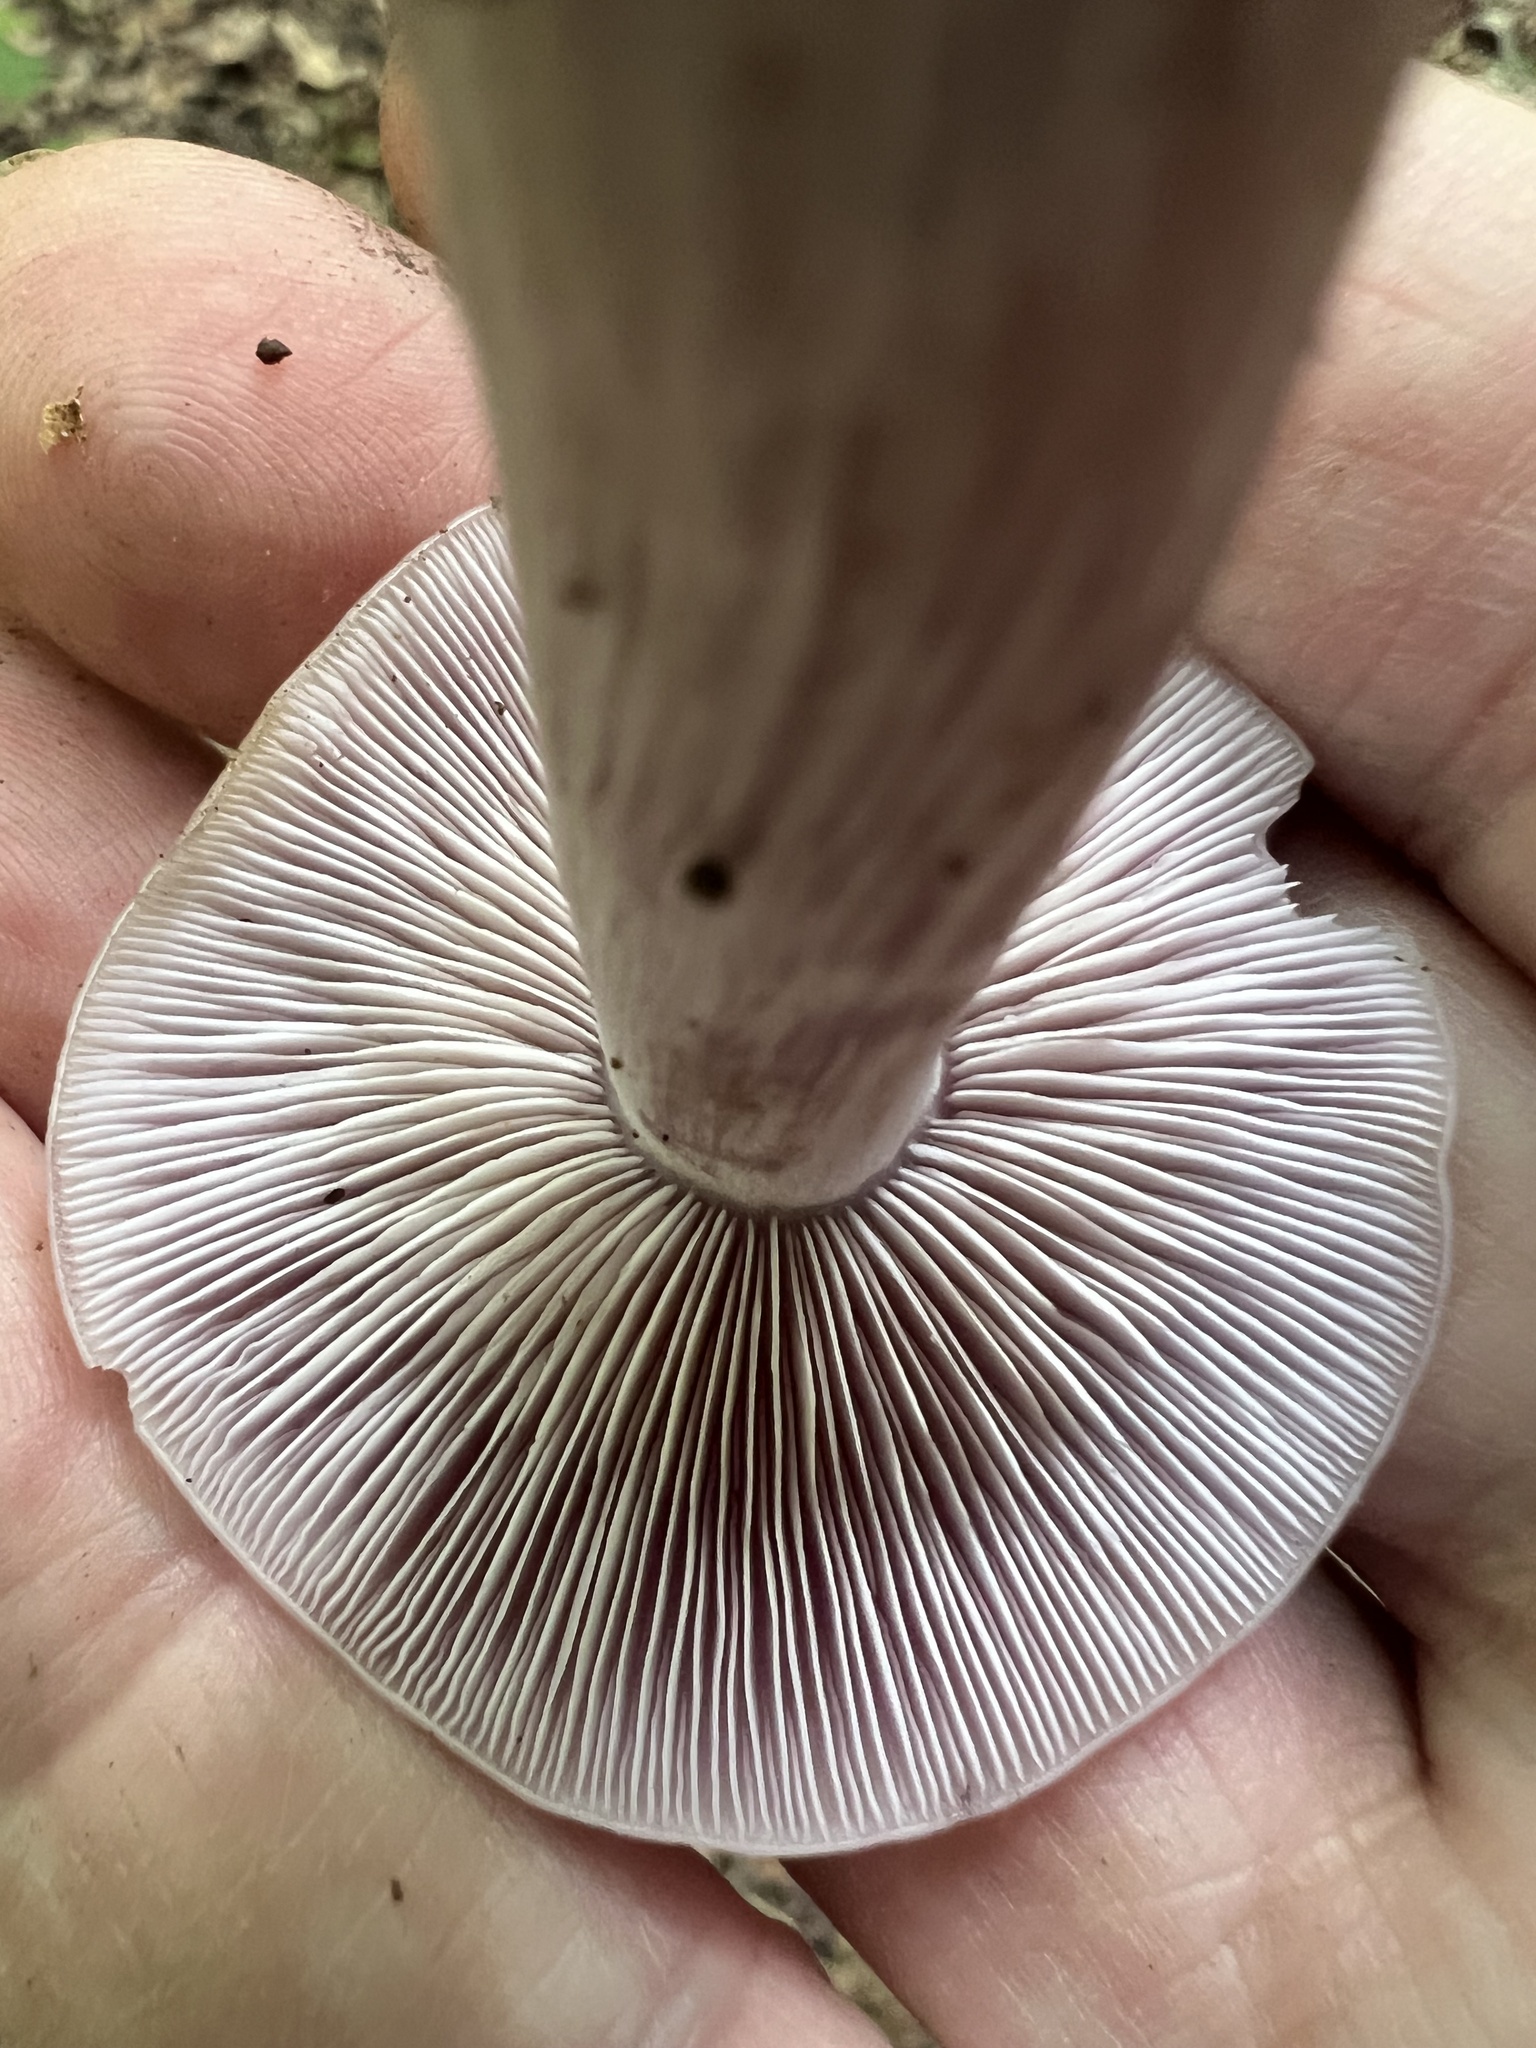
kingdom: Fungi
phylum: Basidiomycota
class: Agaricomycetes
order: Agaricales
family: Tricholomataceae
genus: Collybia
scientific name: Collybia
